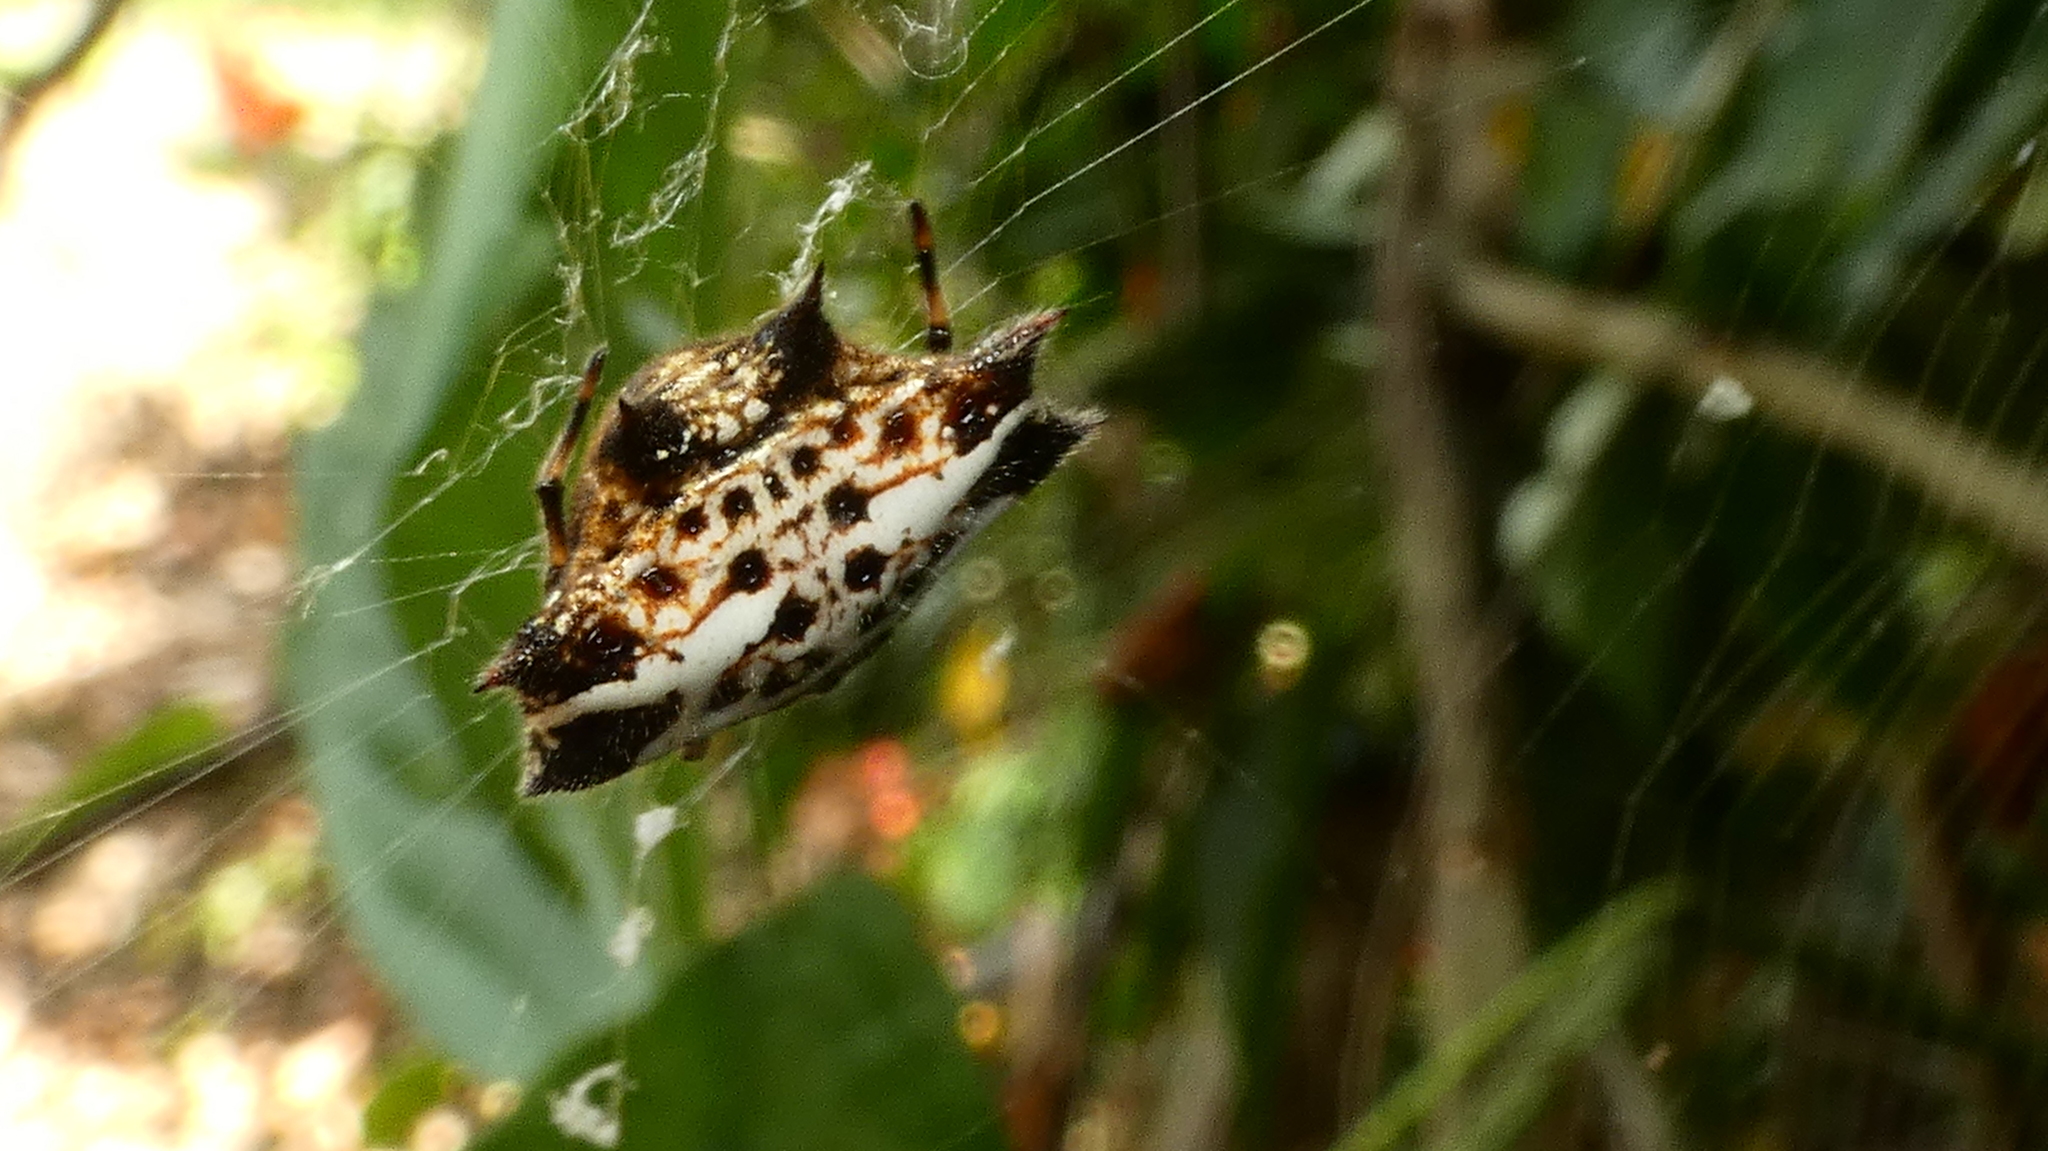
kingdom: Animalia
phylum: Arthropoda
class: Arachnida
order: Araneae
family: Araneidae
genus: Gasteracantha
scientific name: Gasteracantha cancriformis
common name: Orb weavers
